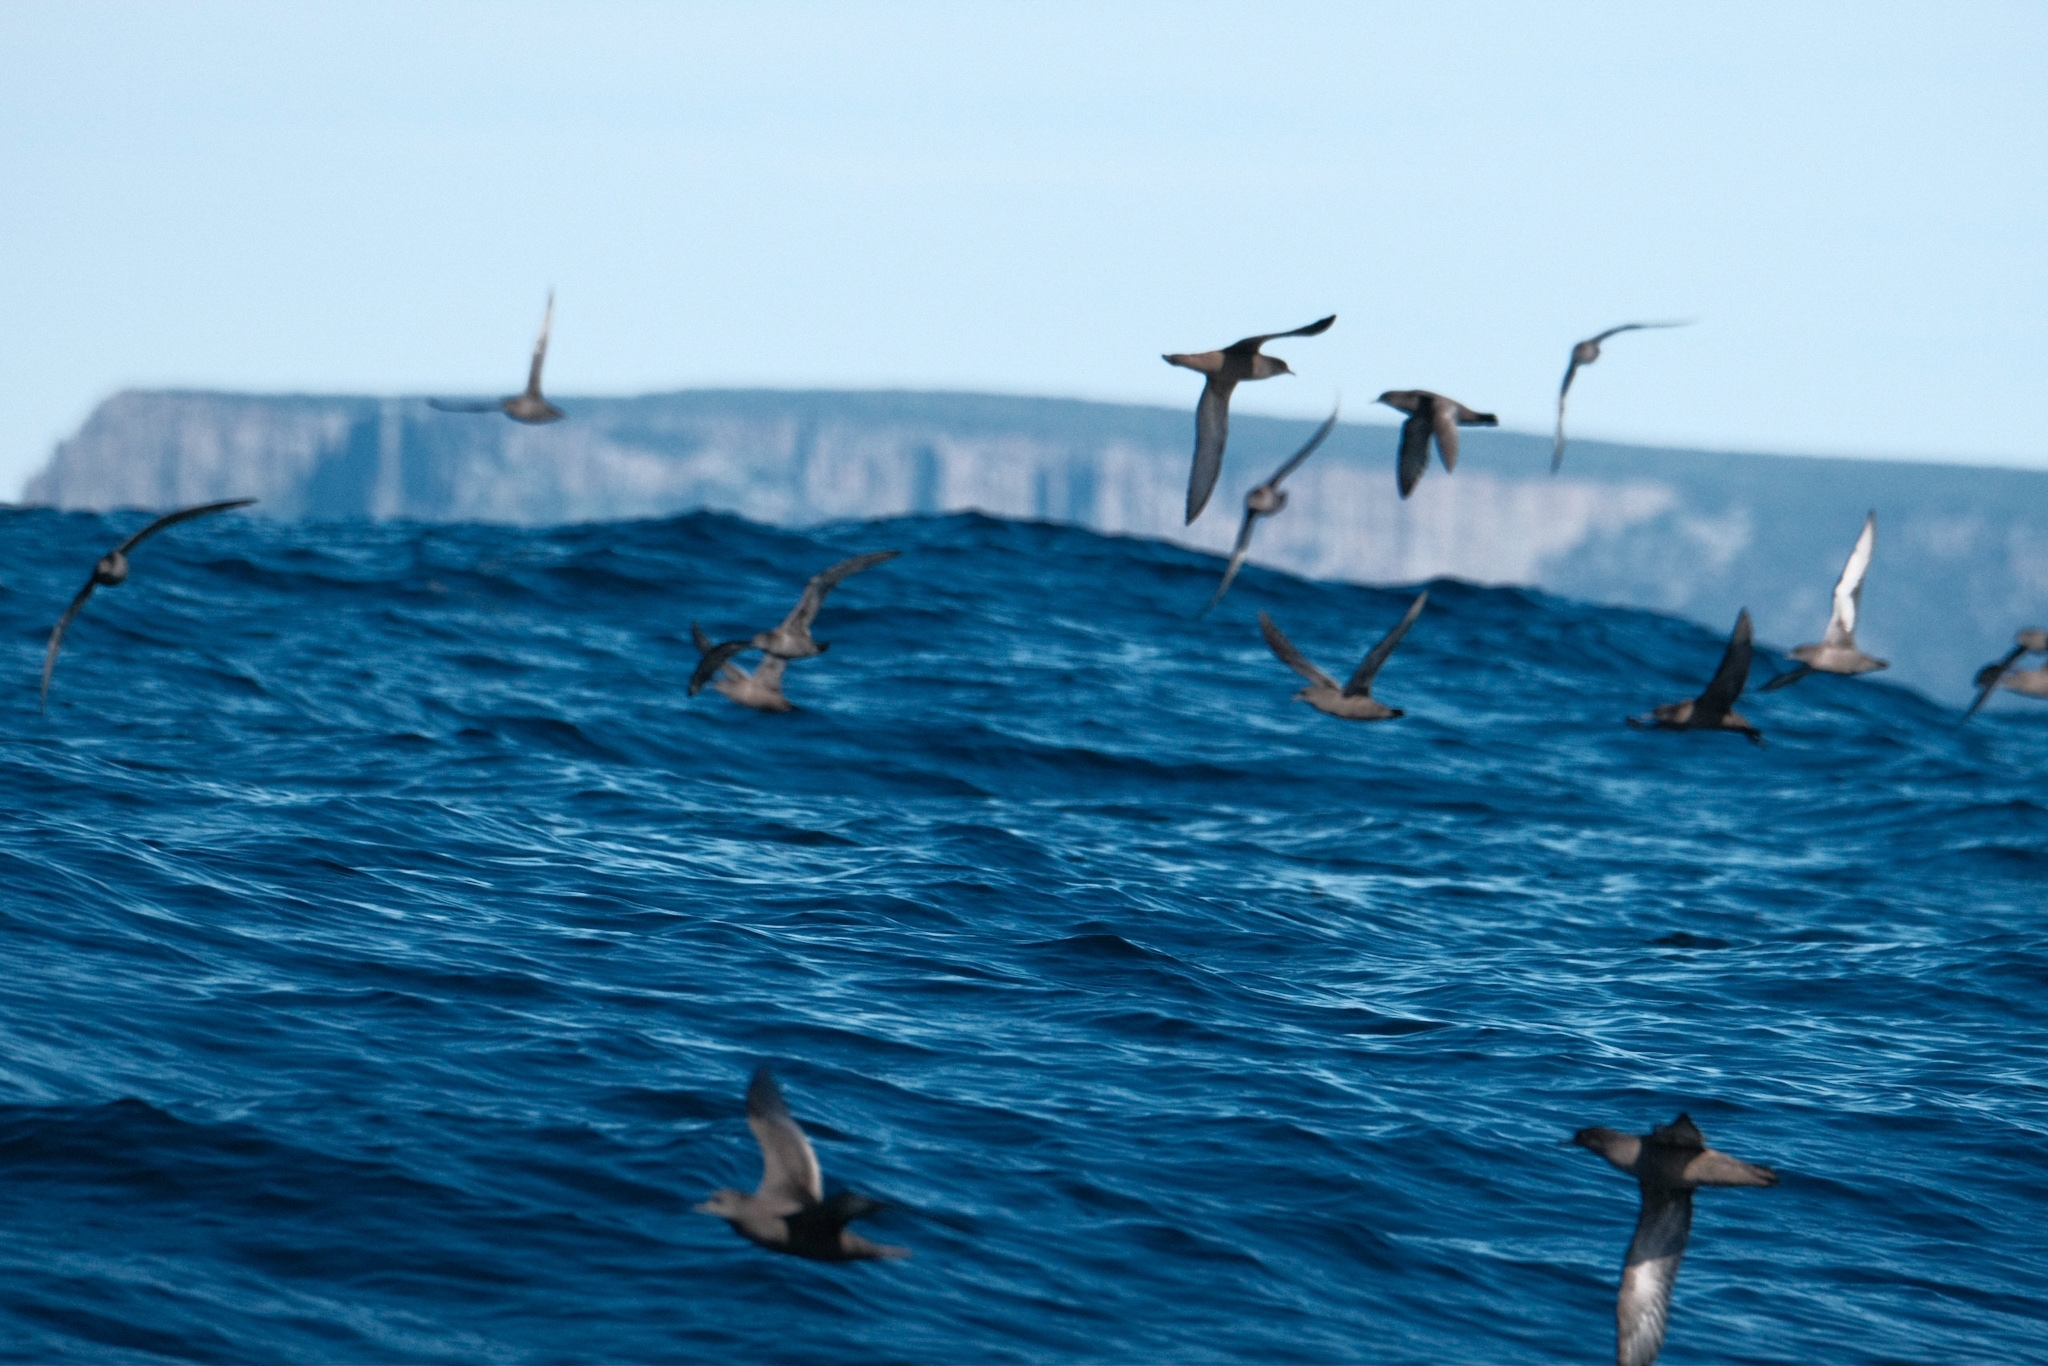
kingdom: Animalia
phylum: Chordata
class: Aves
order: Procellariiformes
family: Procellariidae
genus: Puffinus
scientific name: Puffinus tenuirostris
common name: Short-tailed shearwater
